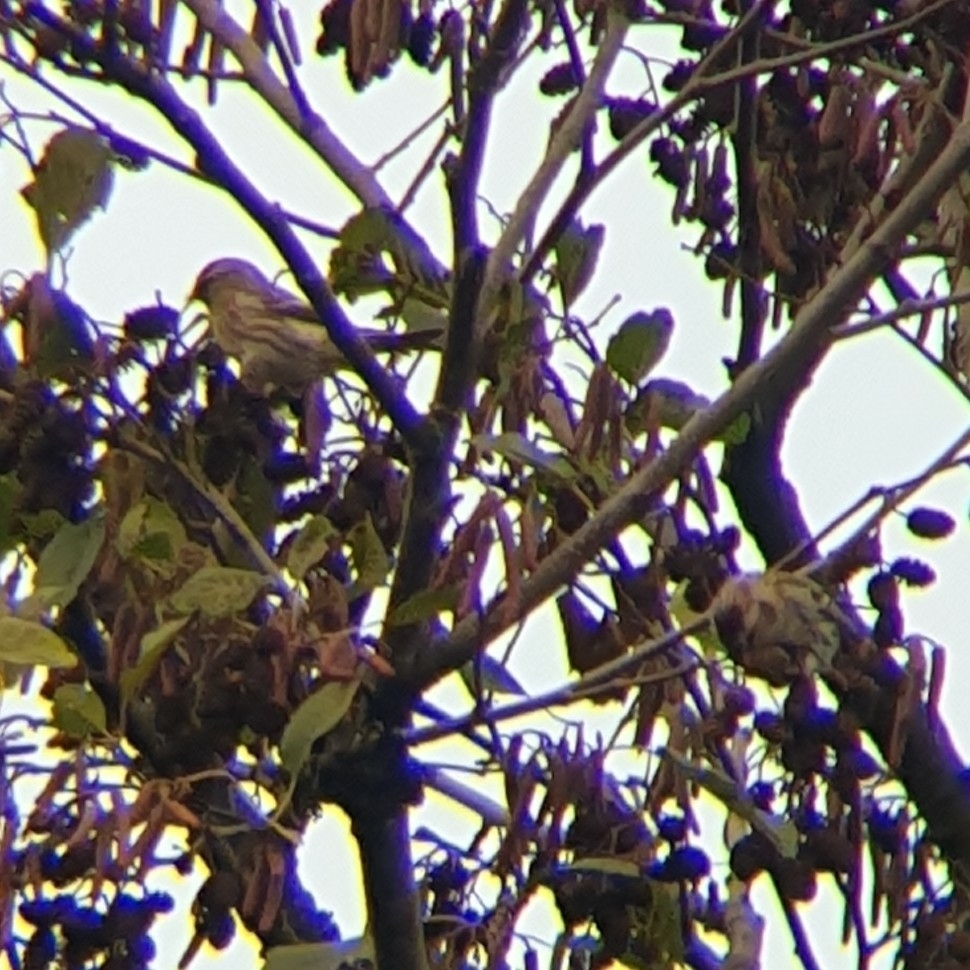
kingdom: Animalia
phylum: Chordata
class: Aves
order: Passeriformes
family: Fringillidae
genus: Acanthis
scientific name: Acanthis flammea
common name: Common redpoll
